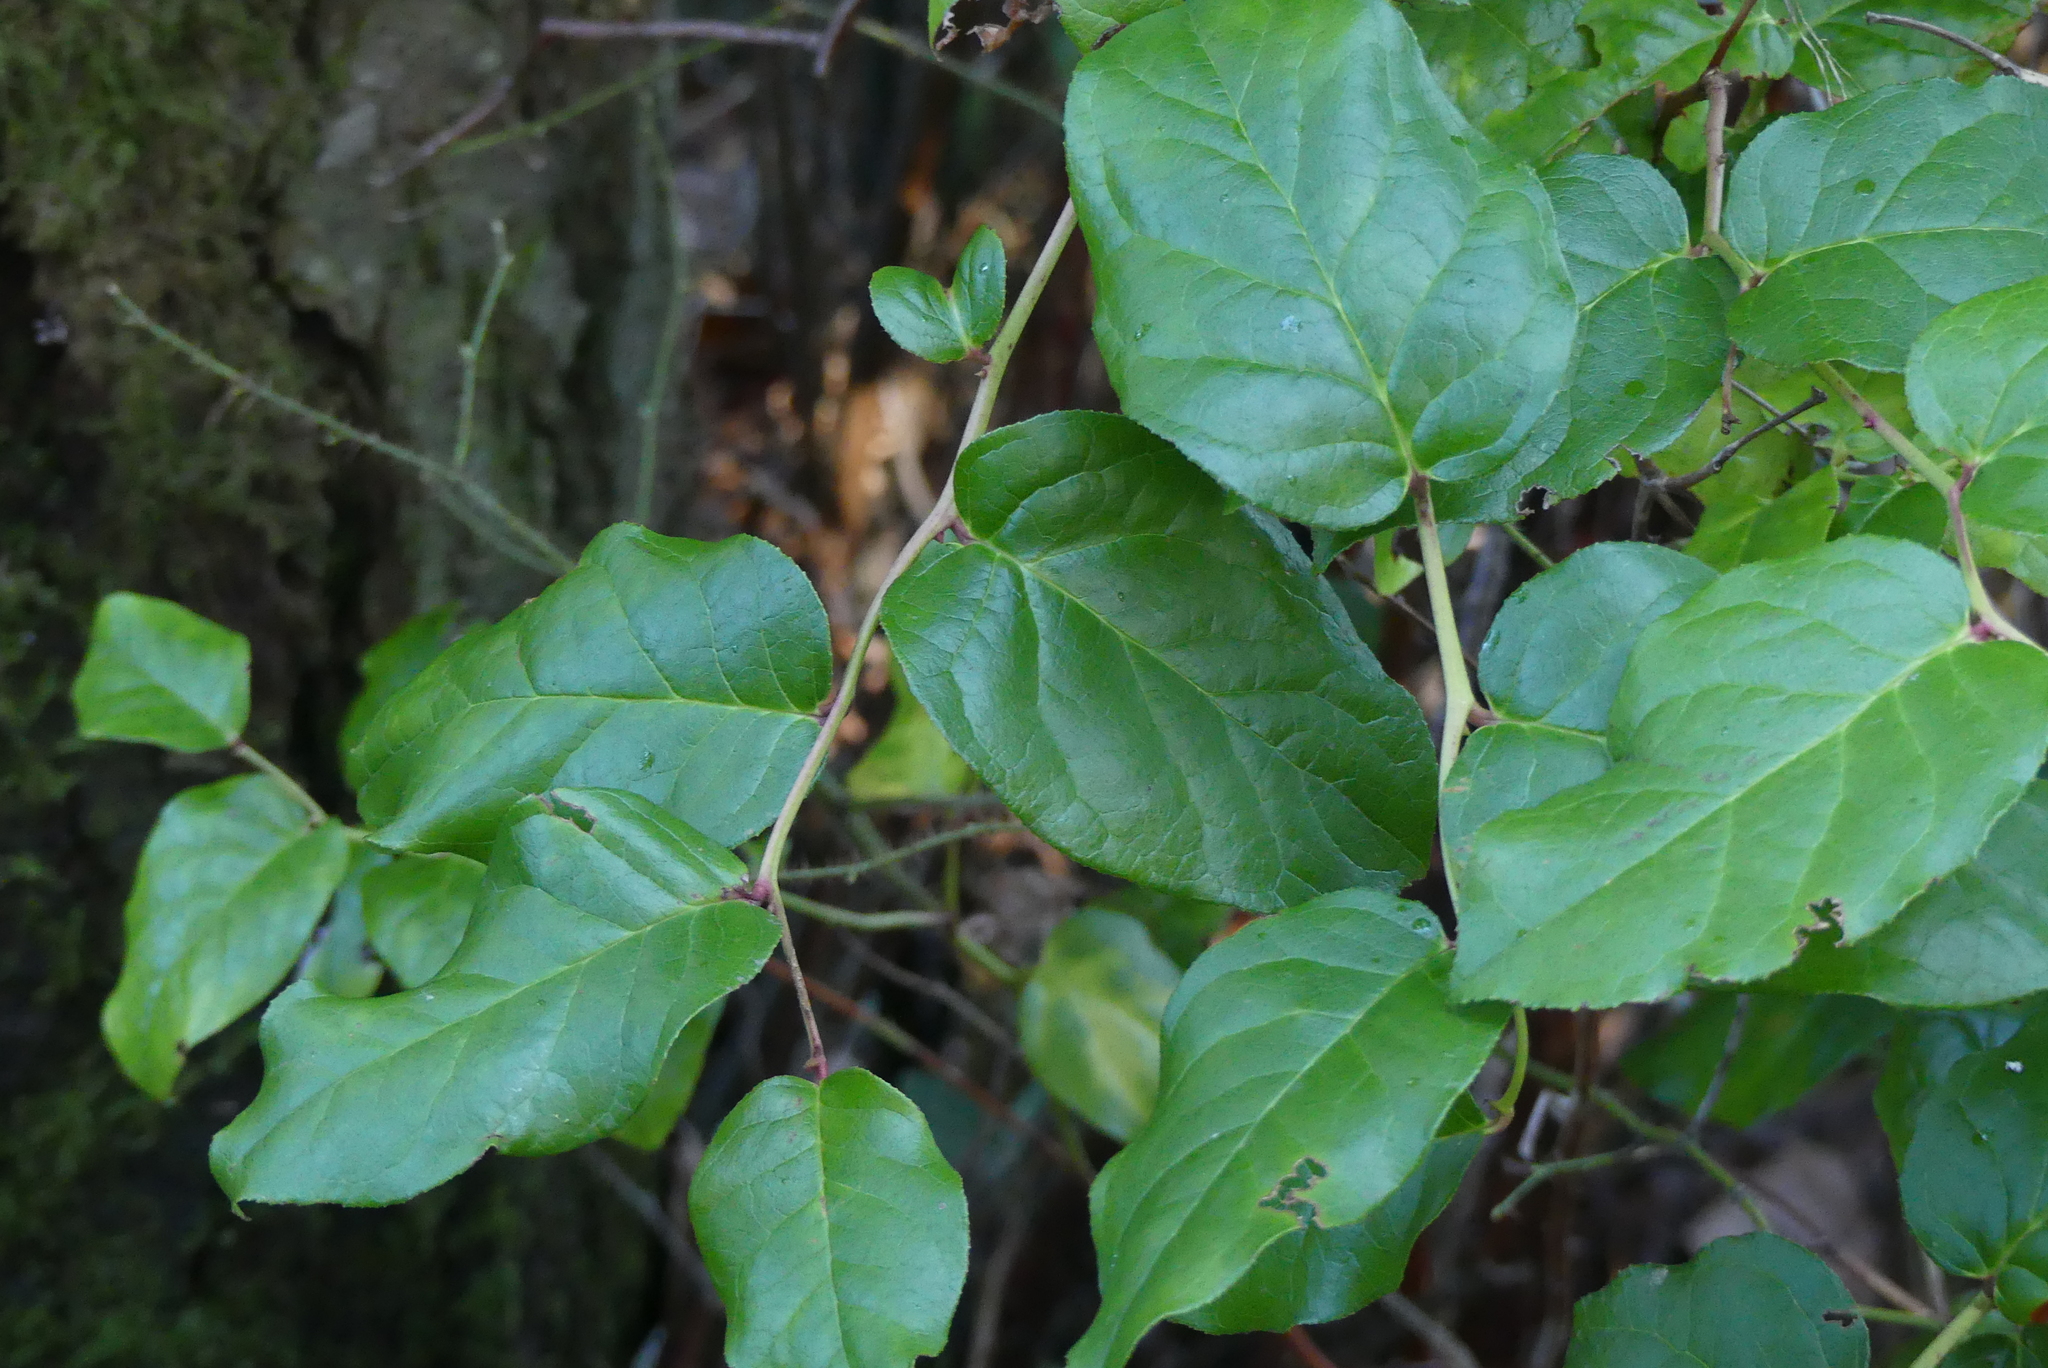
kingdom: Plantae
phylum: Tracheophyta
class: Magnoliopsida
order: Ericales
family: Ericaceae
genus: Gaultheria
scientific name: Gaultheria shallon
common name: Shallon
